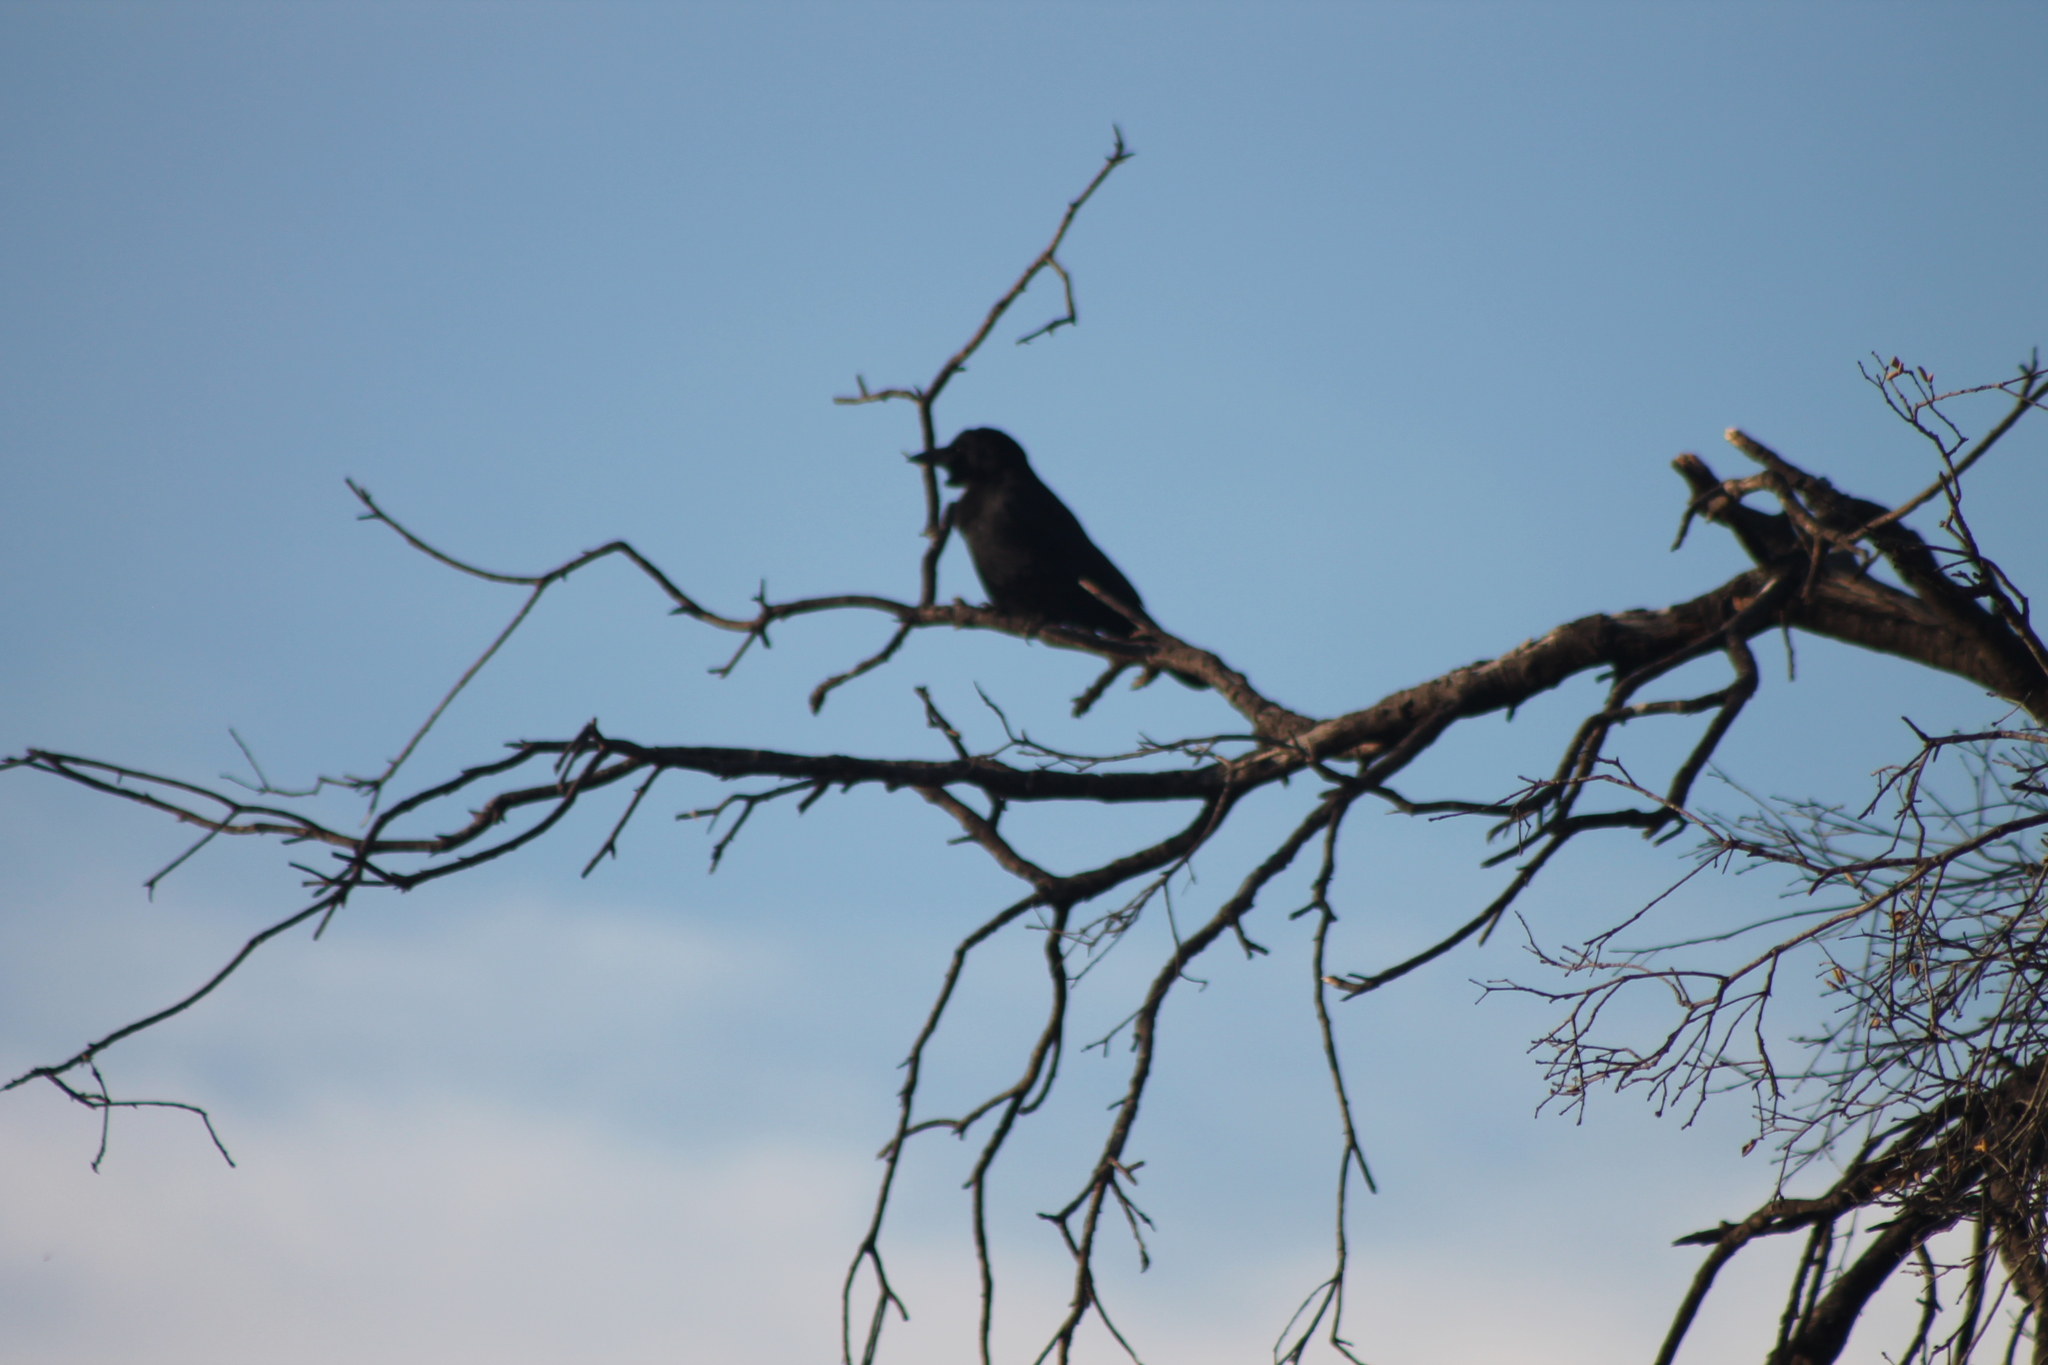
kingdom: Animalia
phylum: Chordata
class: Aves
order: Passeriformes
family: Corvidae
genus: Corvus
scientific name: Corvus brachyrhynchos
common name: American crow
